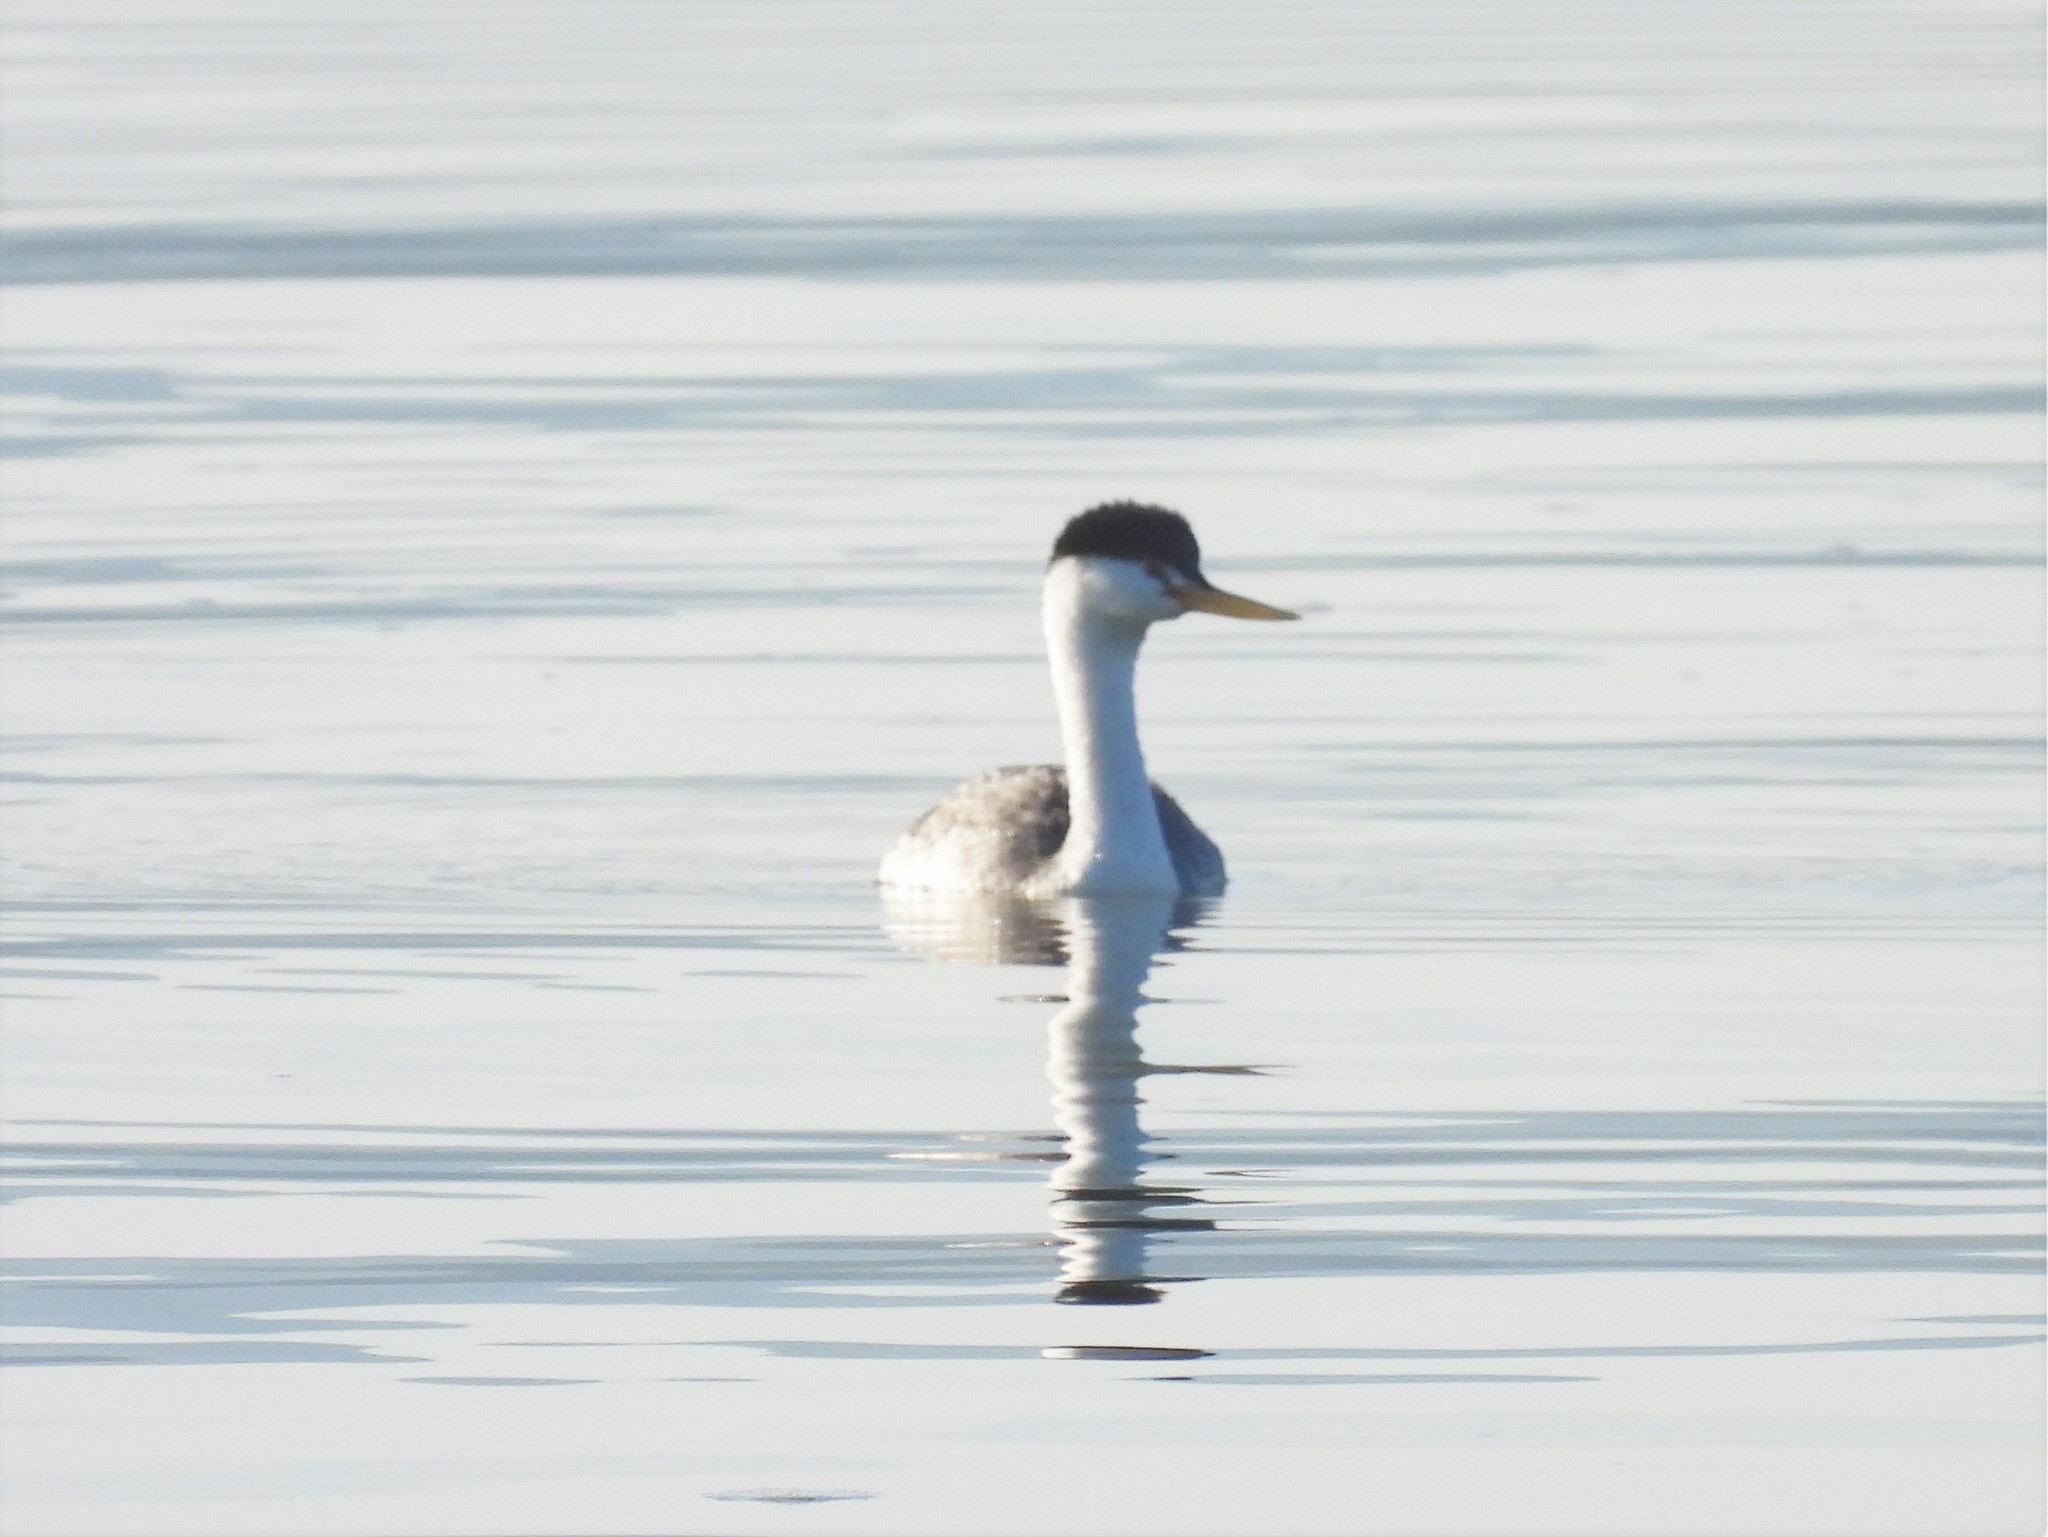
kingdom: Animalia
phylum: Chordata
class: Aves
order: Podicipediformes
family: Podicipedidae
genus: Aechmophorus
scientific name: Aechmophorus clarkii
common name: Clark's grebe
